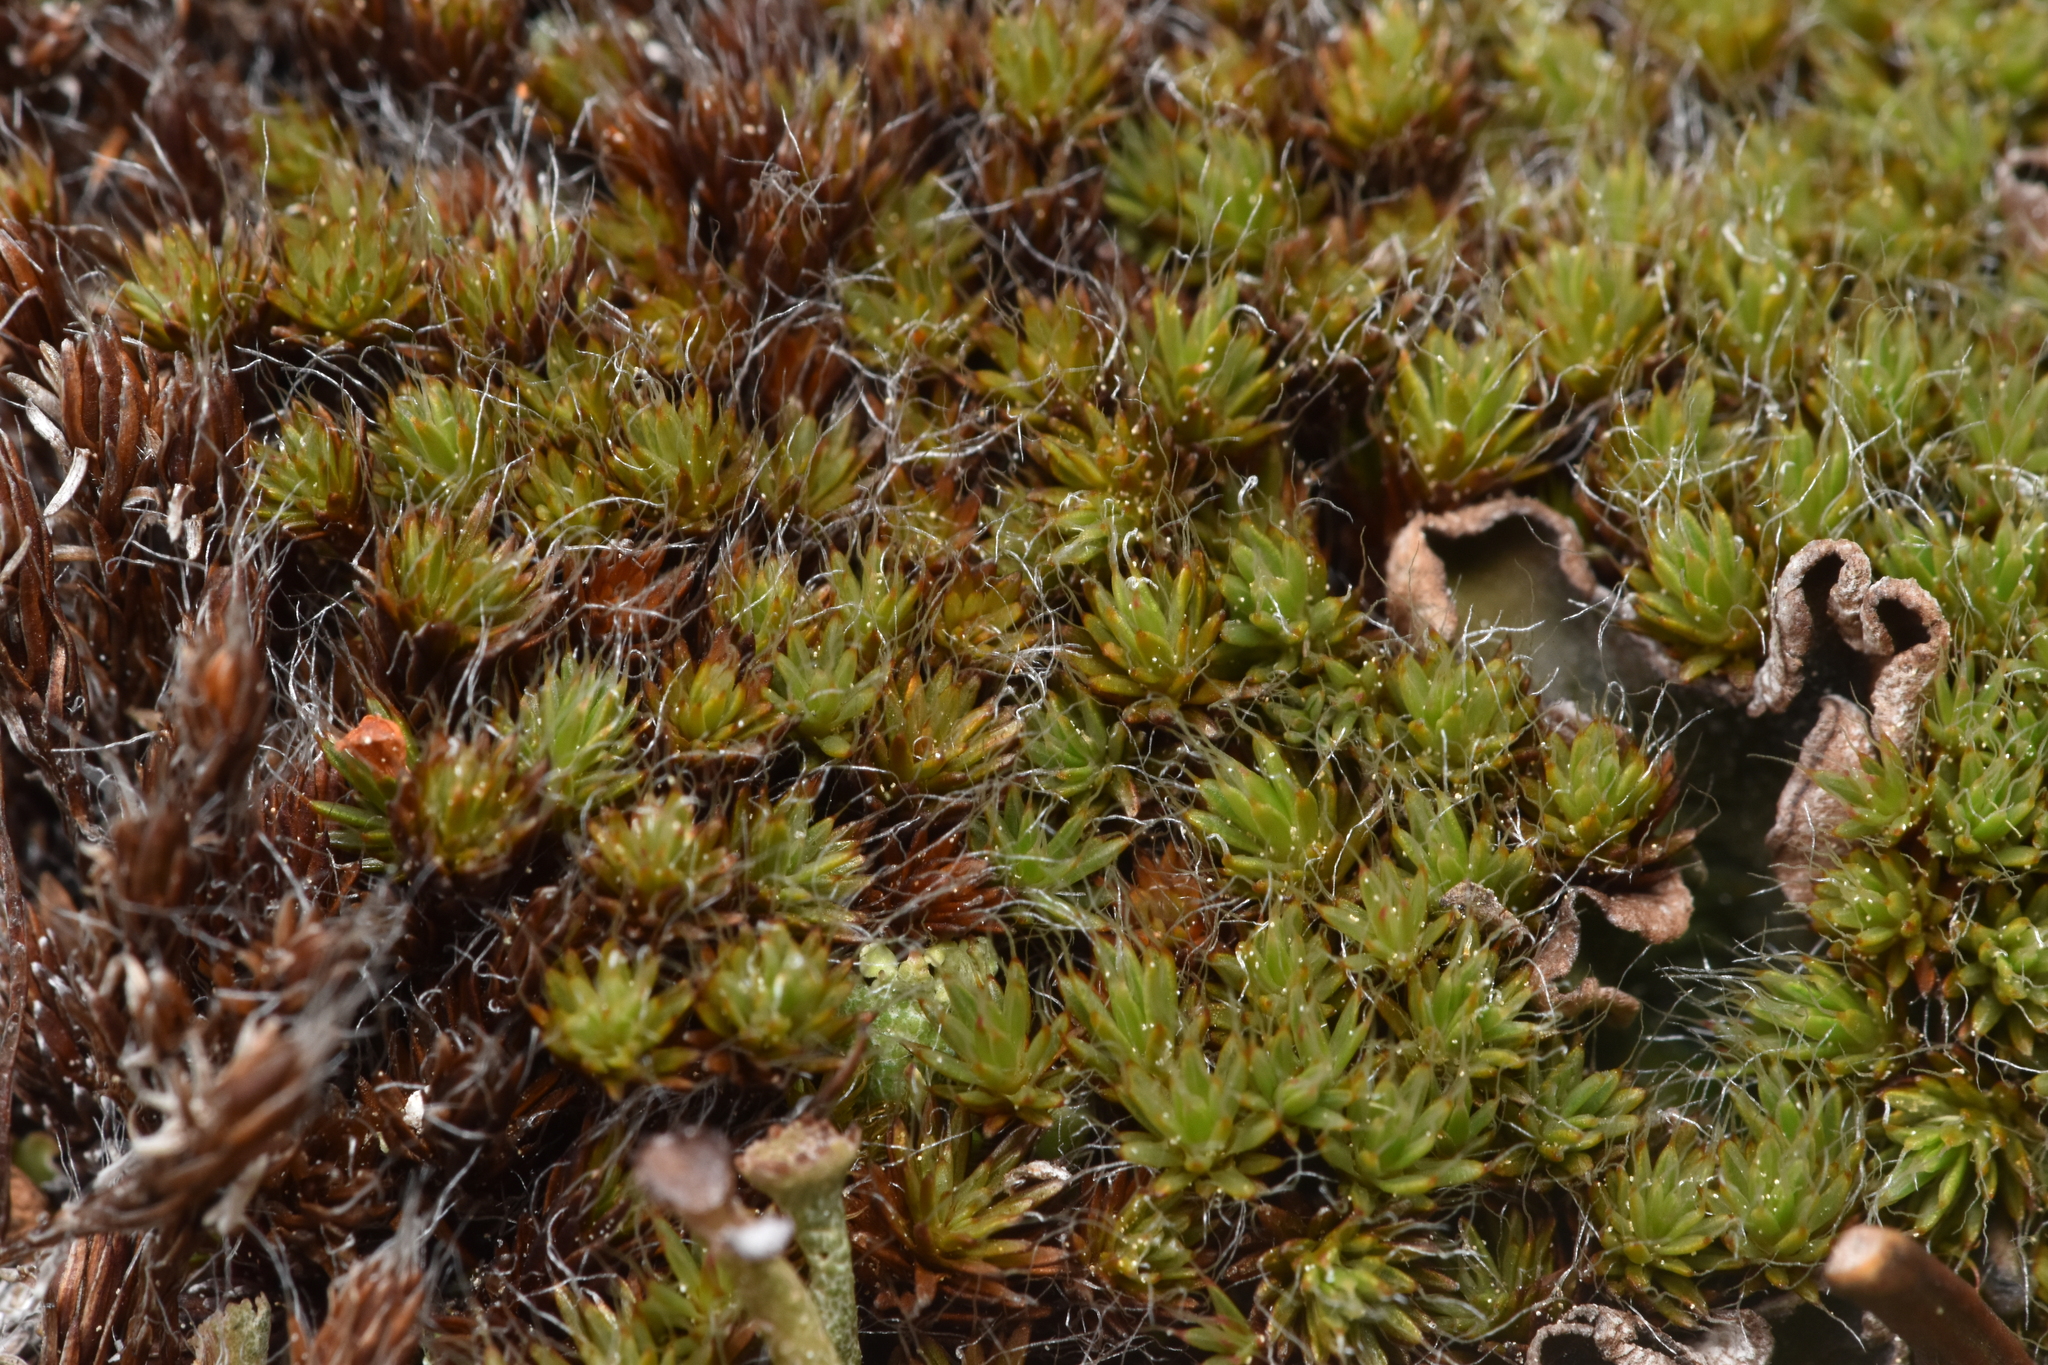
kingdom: Plantae
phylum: Bryophyta
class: Polytrichopsida
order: Polytrichales
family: Polytrichaceae
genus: Polytrichum
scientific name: Polytrichum piliferum
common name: Bristly haircap
